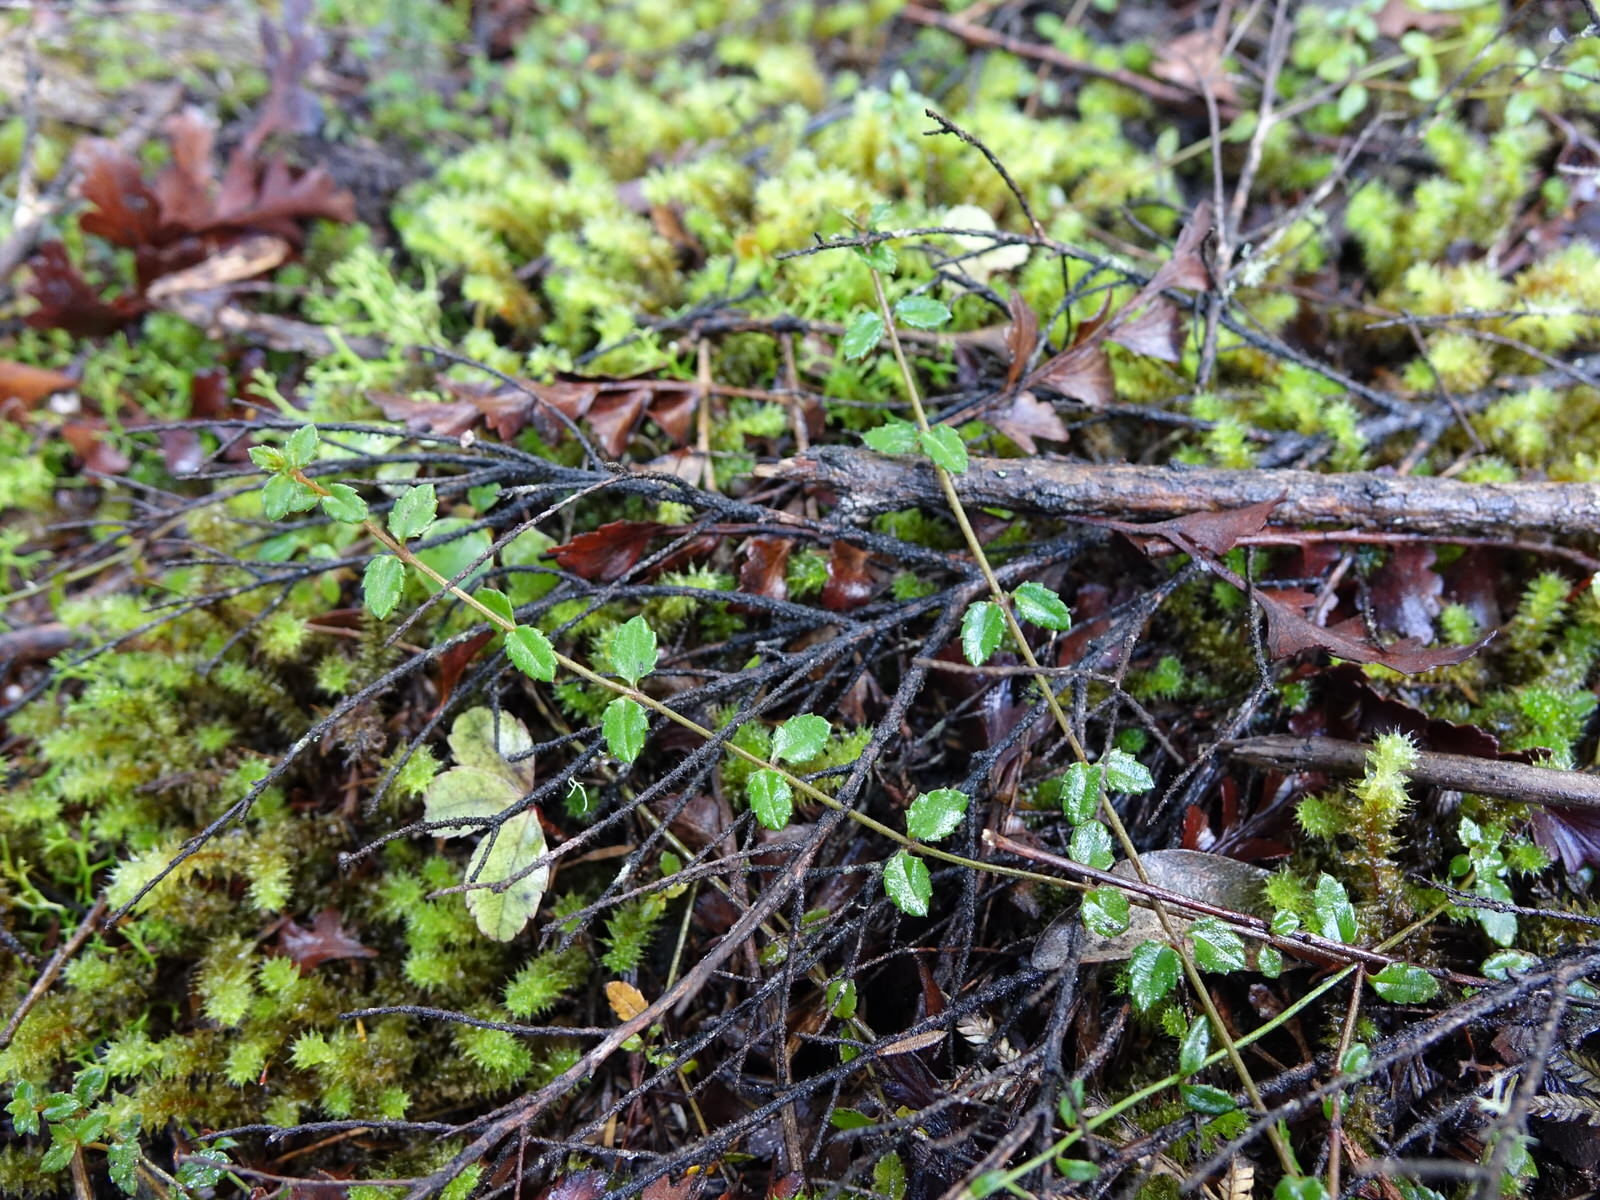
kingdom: Plantae
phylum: Tracheophyta
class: Magnoliopsida
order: Saxifragales
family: Haloragaceae
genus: Gonocarpus
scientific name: Gonocarpus incanus
